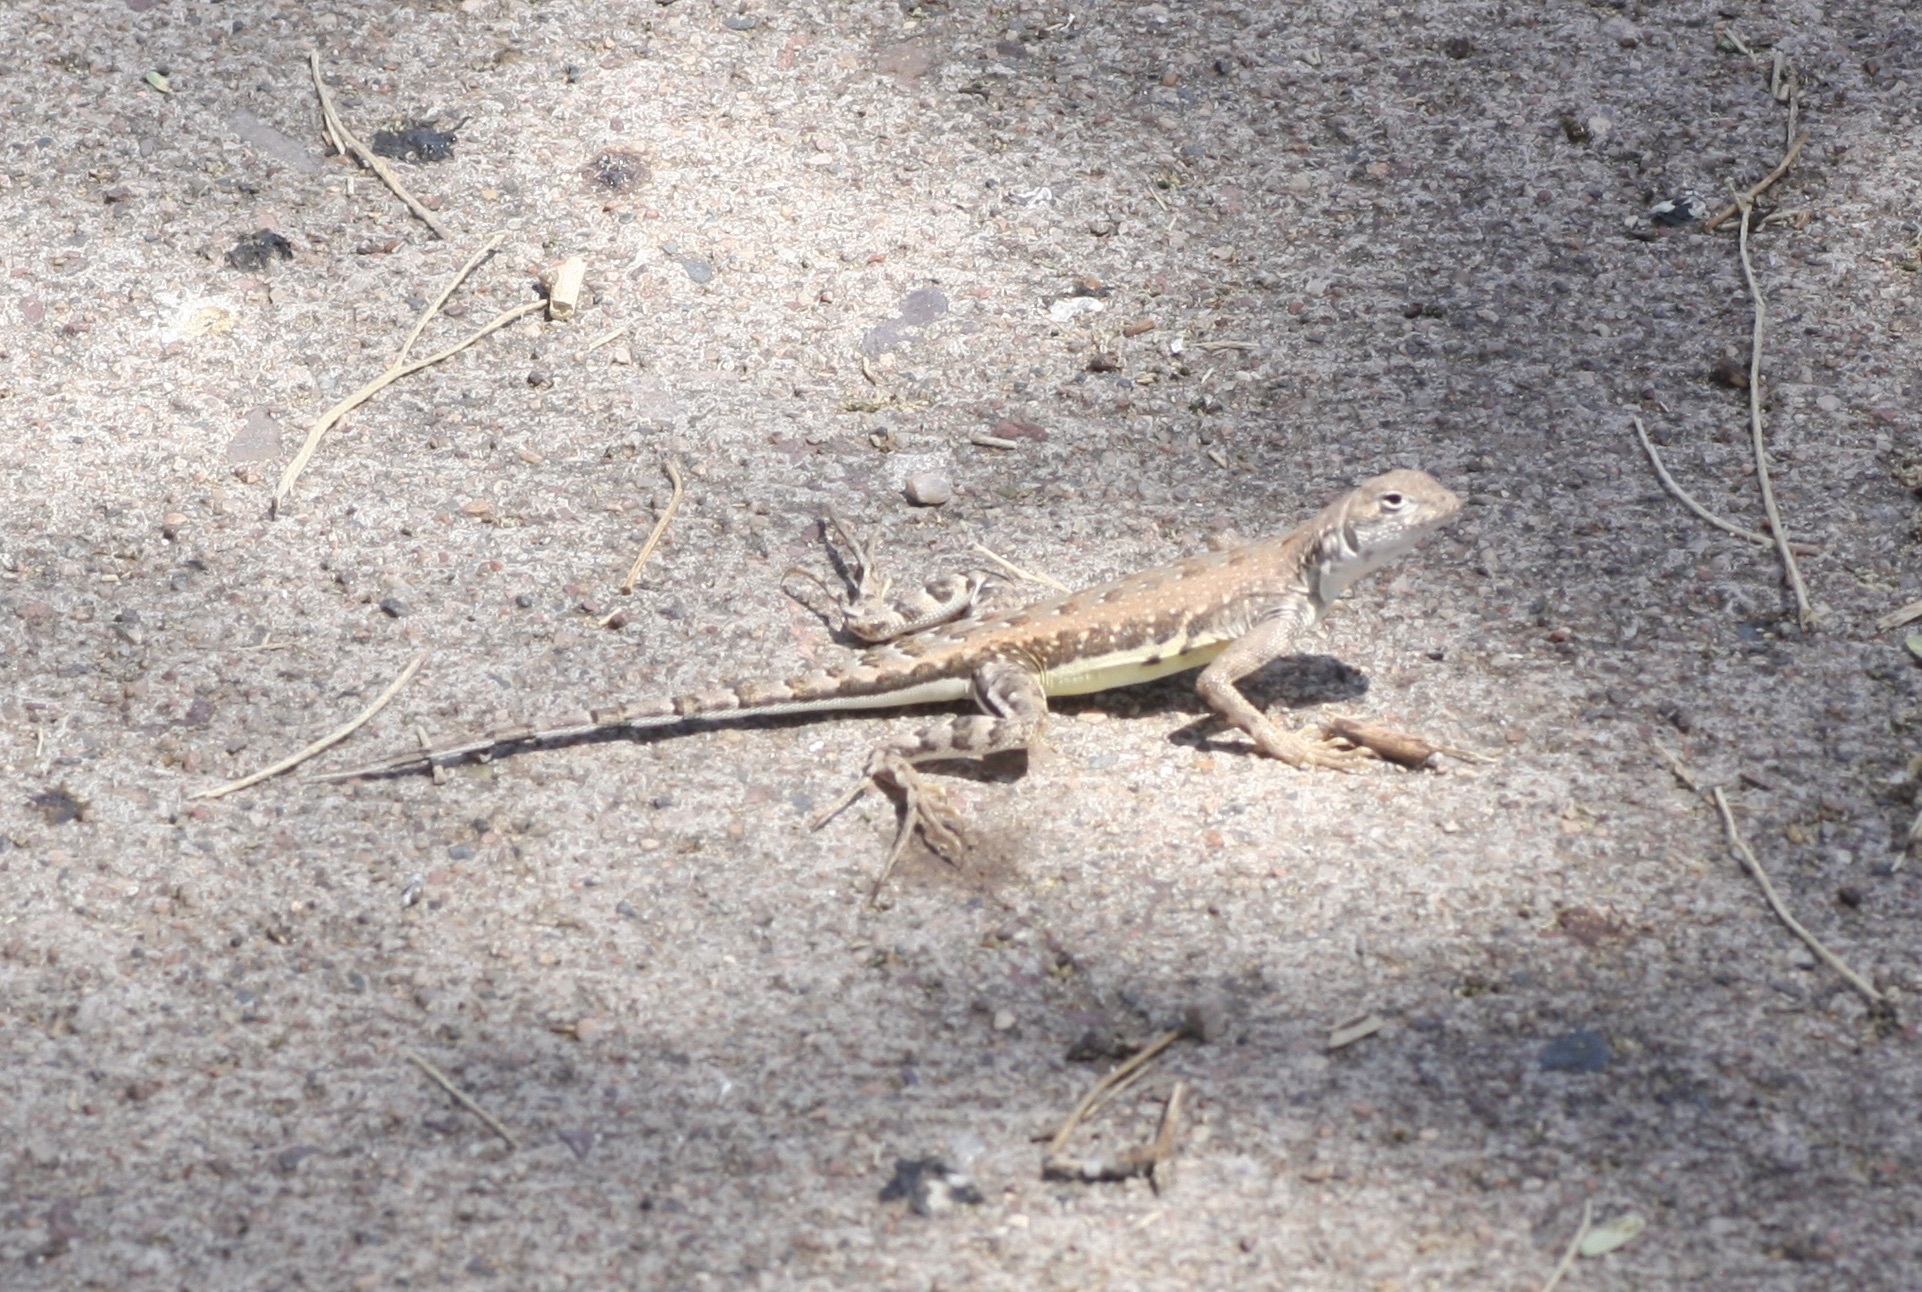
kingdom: Animalia
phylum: Chordata
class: Squamata
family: Phrynosomatidae
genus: Callisaurus
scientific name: Callisaurus draconoides
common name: Zebra-tailed lizard
